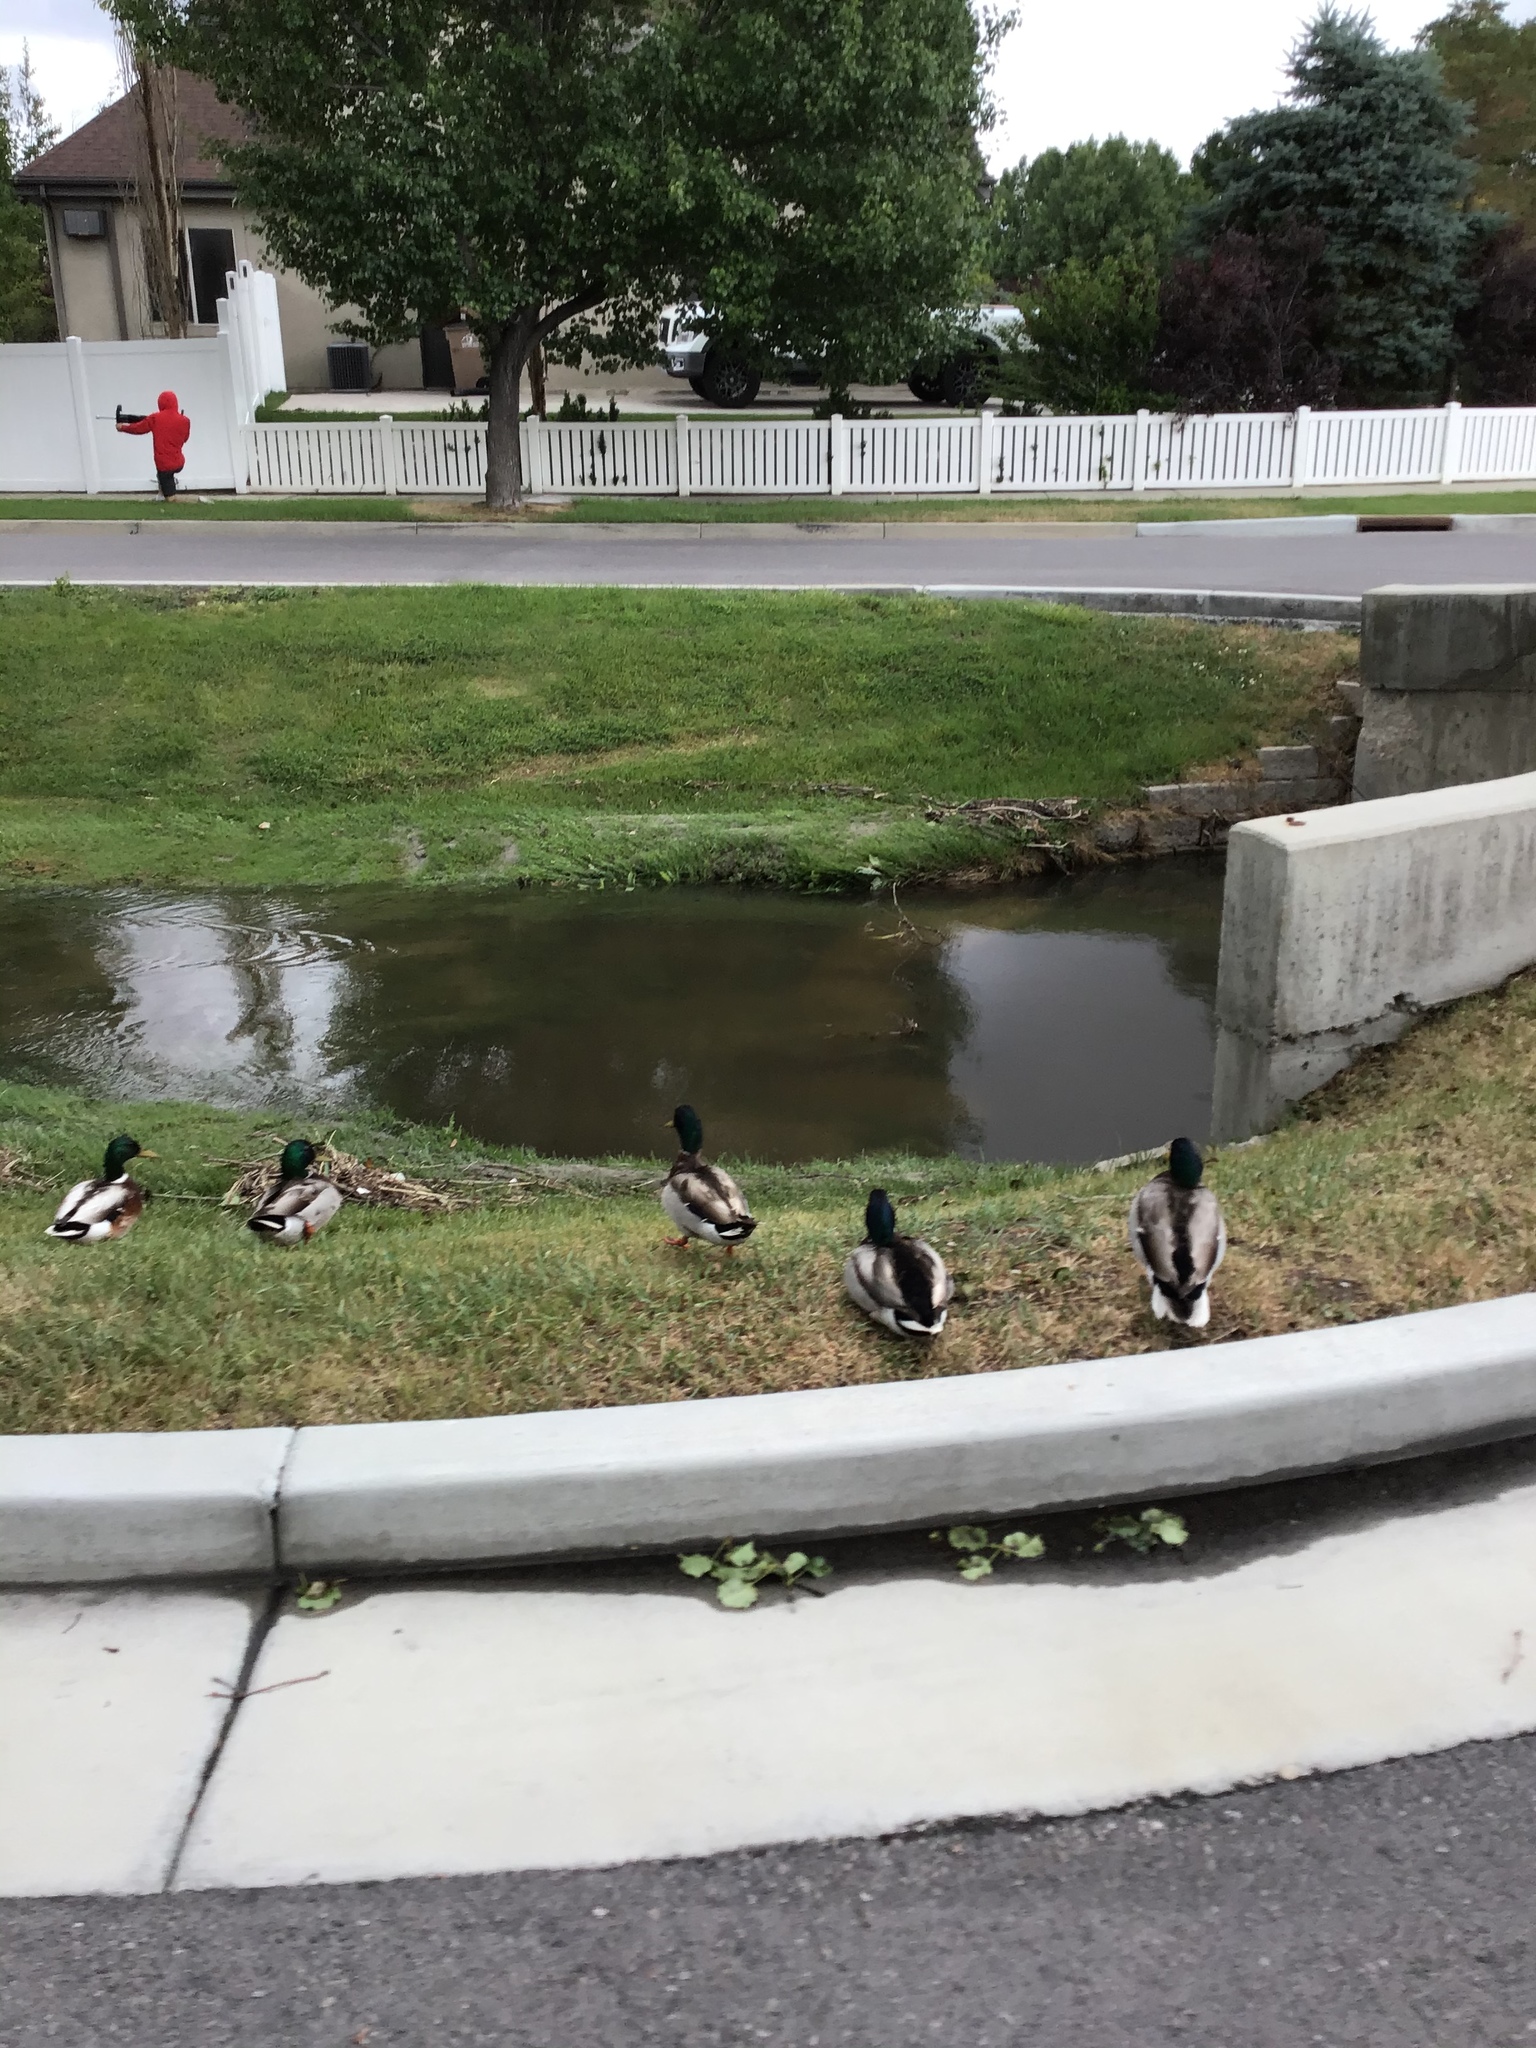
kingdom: Animalia
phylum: Chordata
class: Aves
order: Anseriformes
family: Anatidae
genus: Anas
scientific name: Anas platyrhynchos
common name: Mallard
